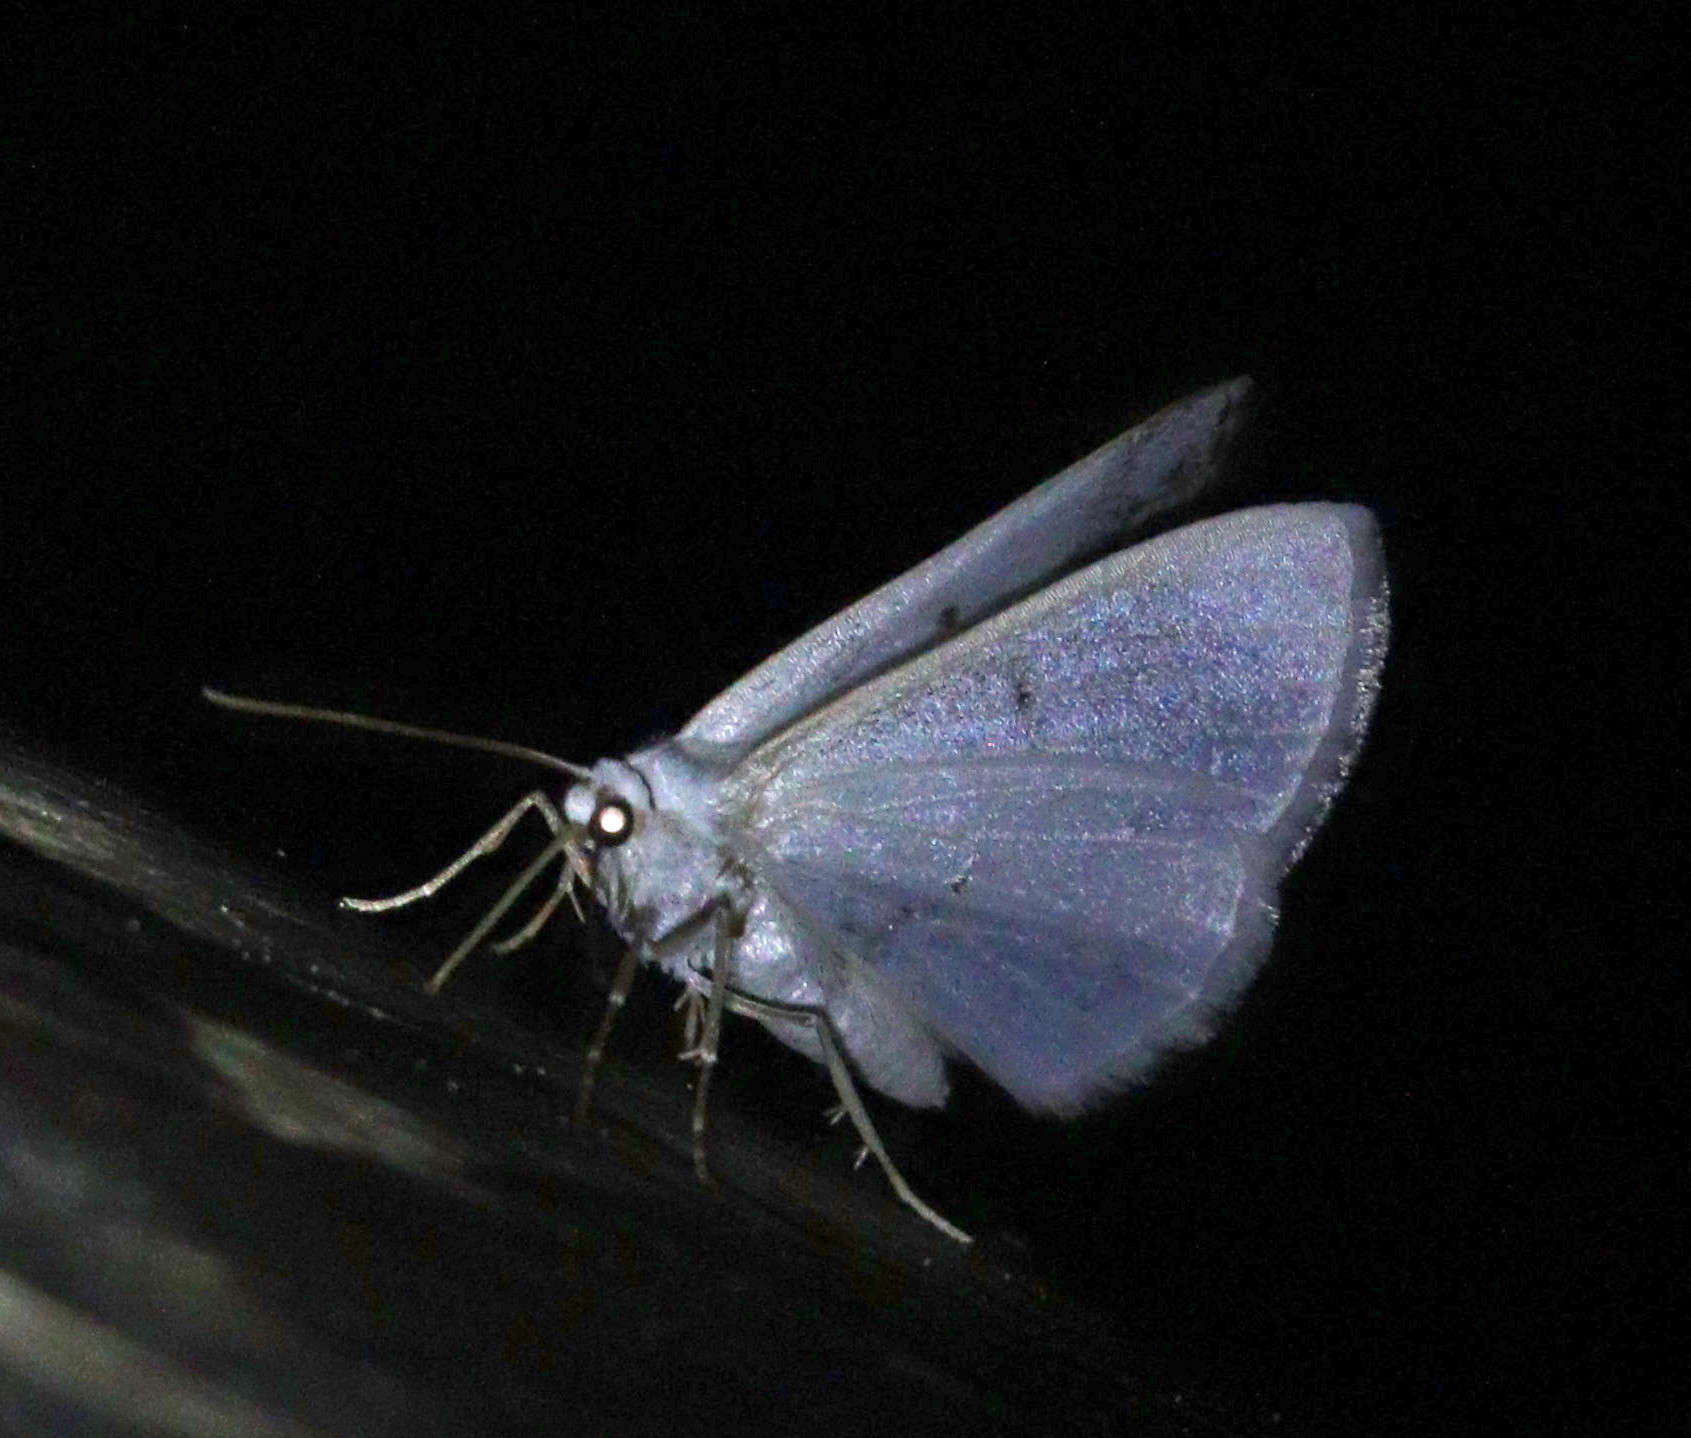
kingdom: Animalia
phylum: Arthropoda
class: Insecta
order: Lepidoptera
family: Geometridae
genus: Lomographa
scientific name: Lomographa temerata
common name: Clouded silver
